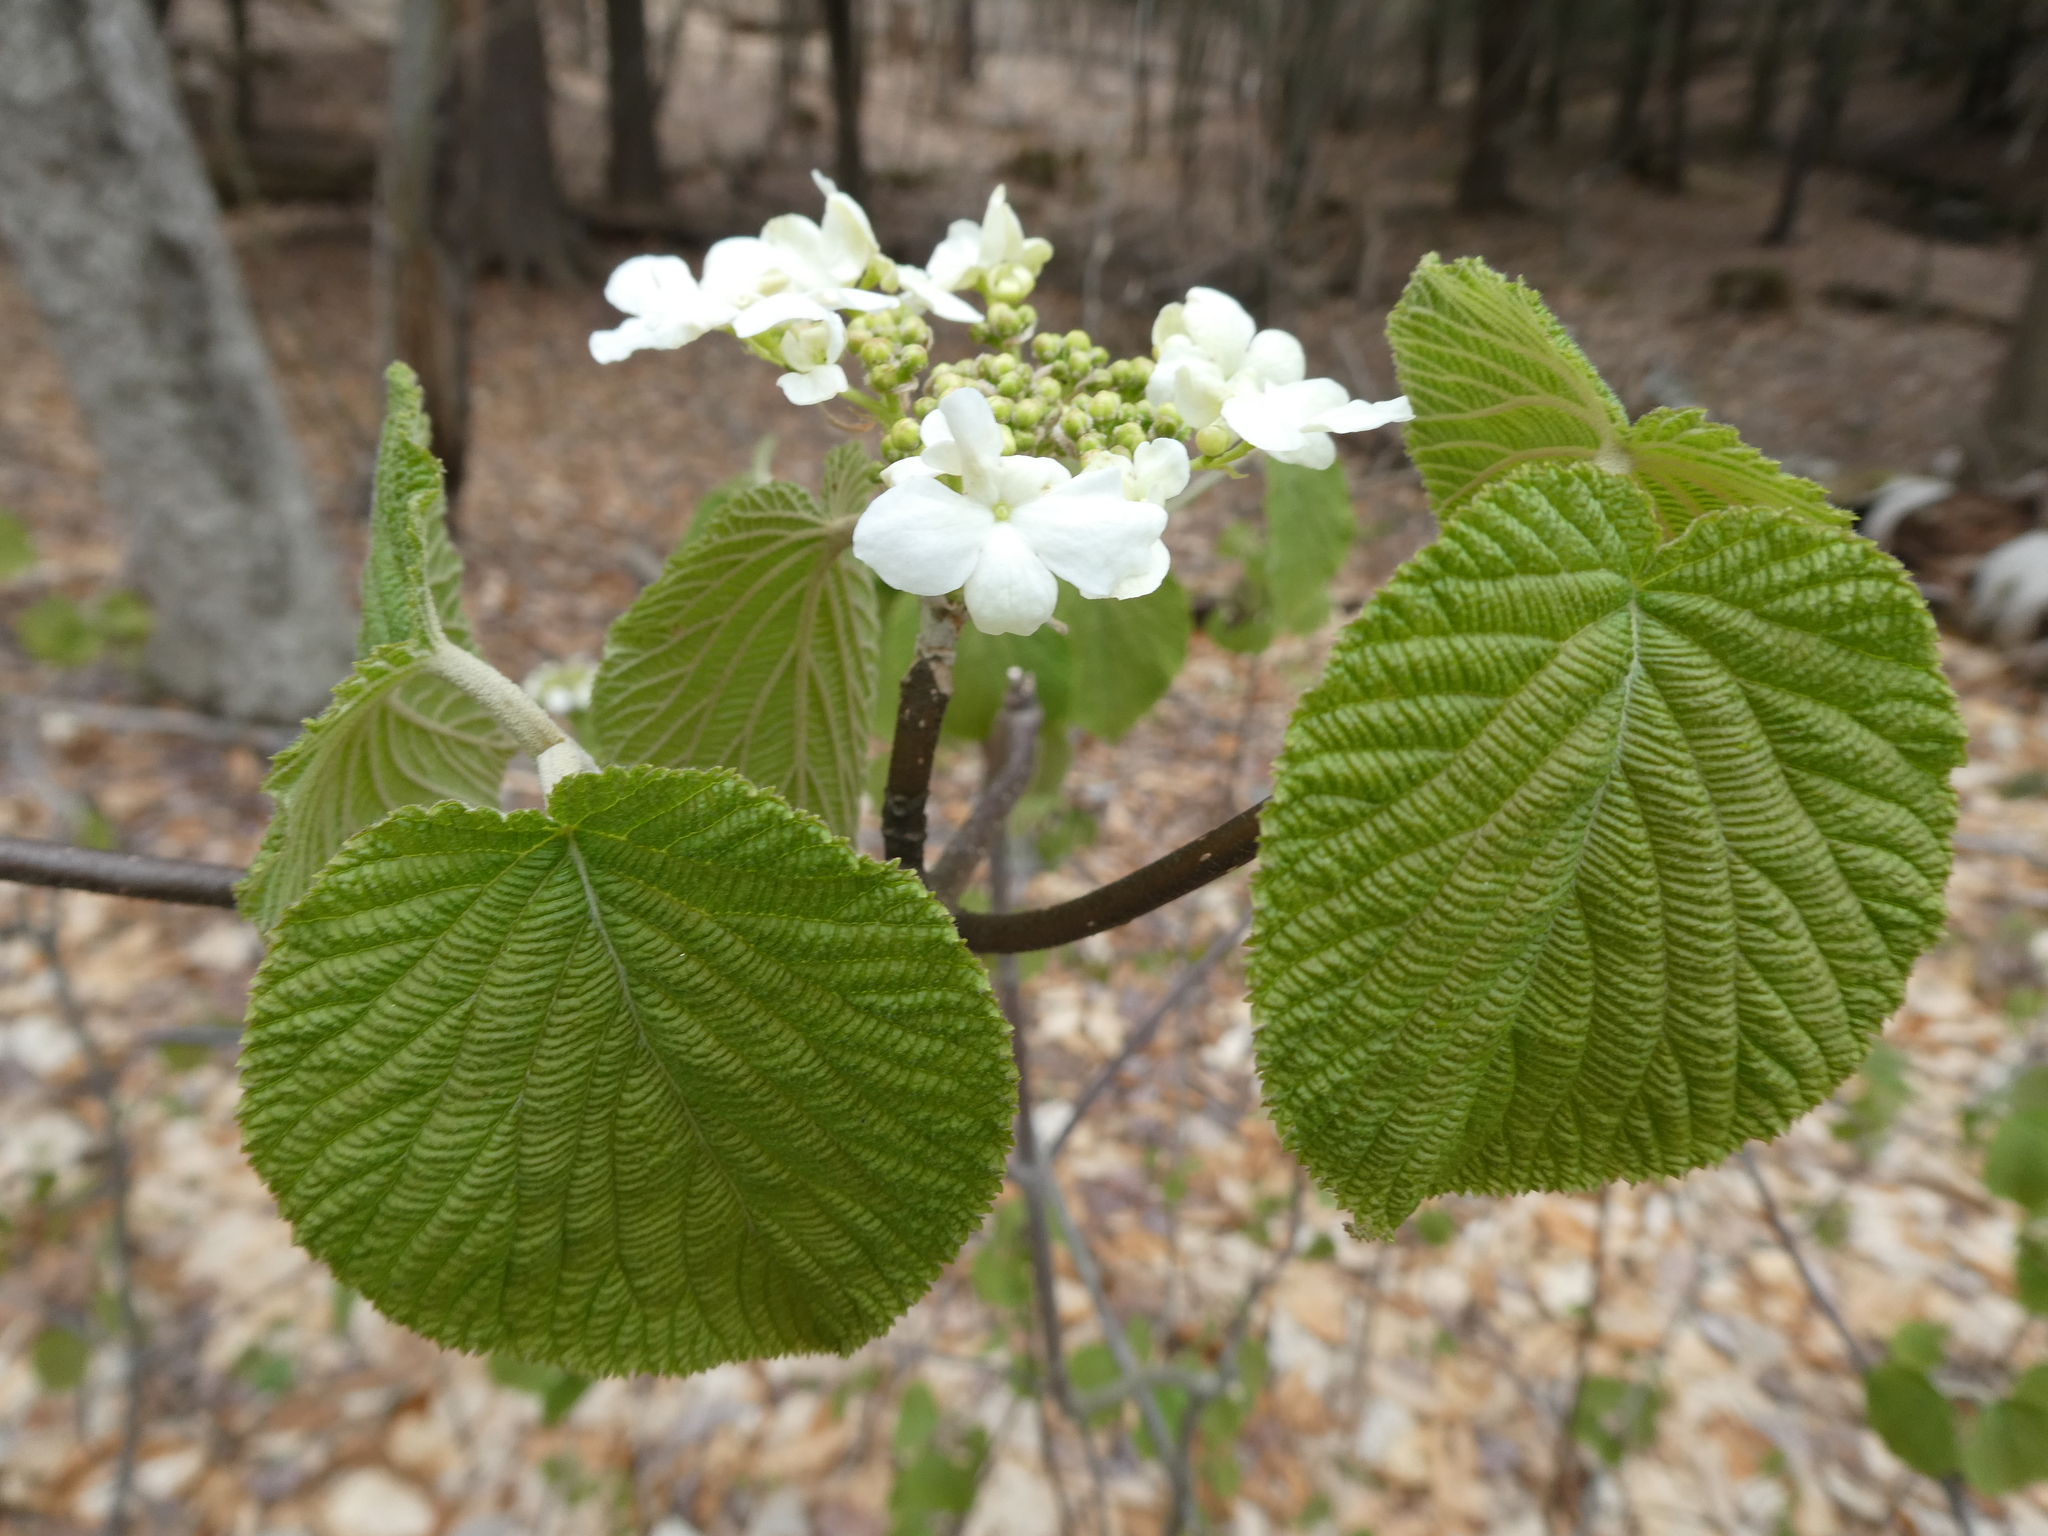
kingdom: Plantae
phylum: Tracheophyta
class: Magnoliopsida
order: Dipsacales
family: Viburnaceae
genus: Viburnum
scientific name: Viburnum lantanoides
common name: Hobblebush
